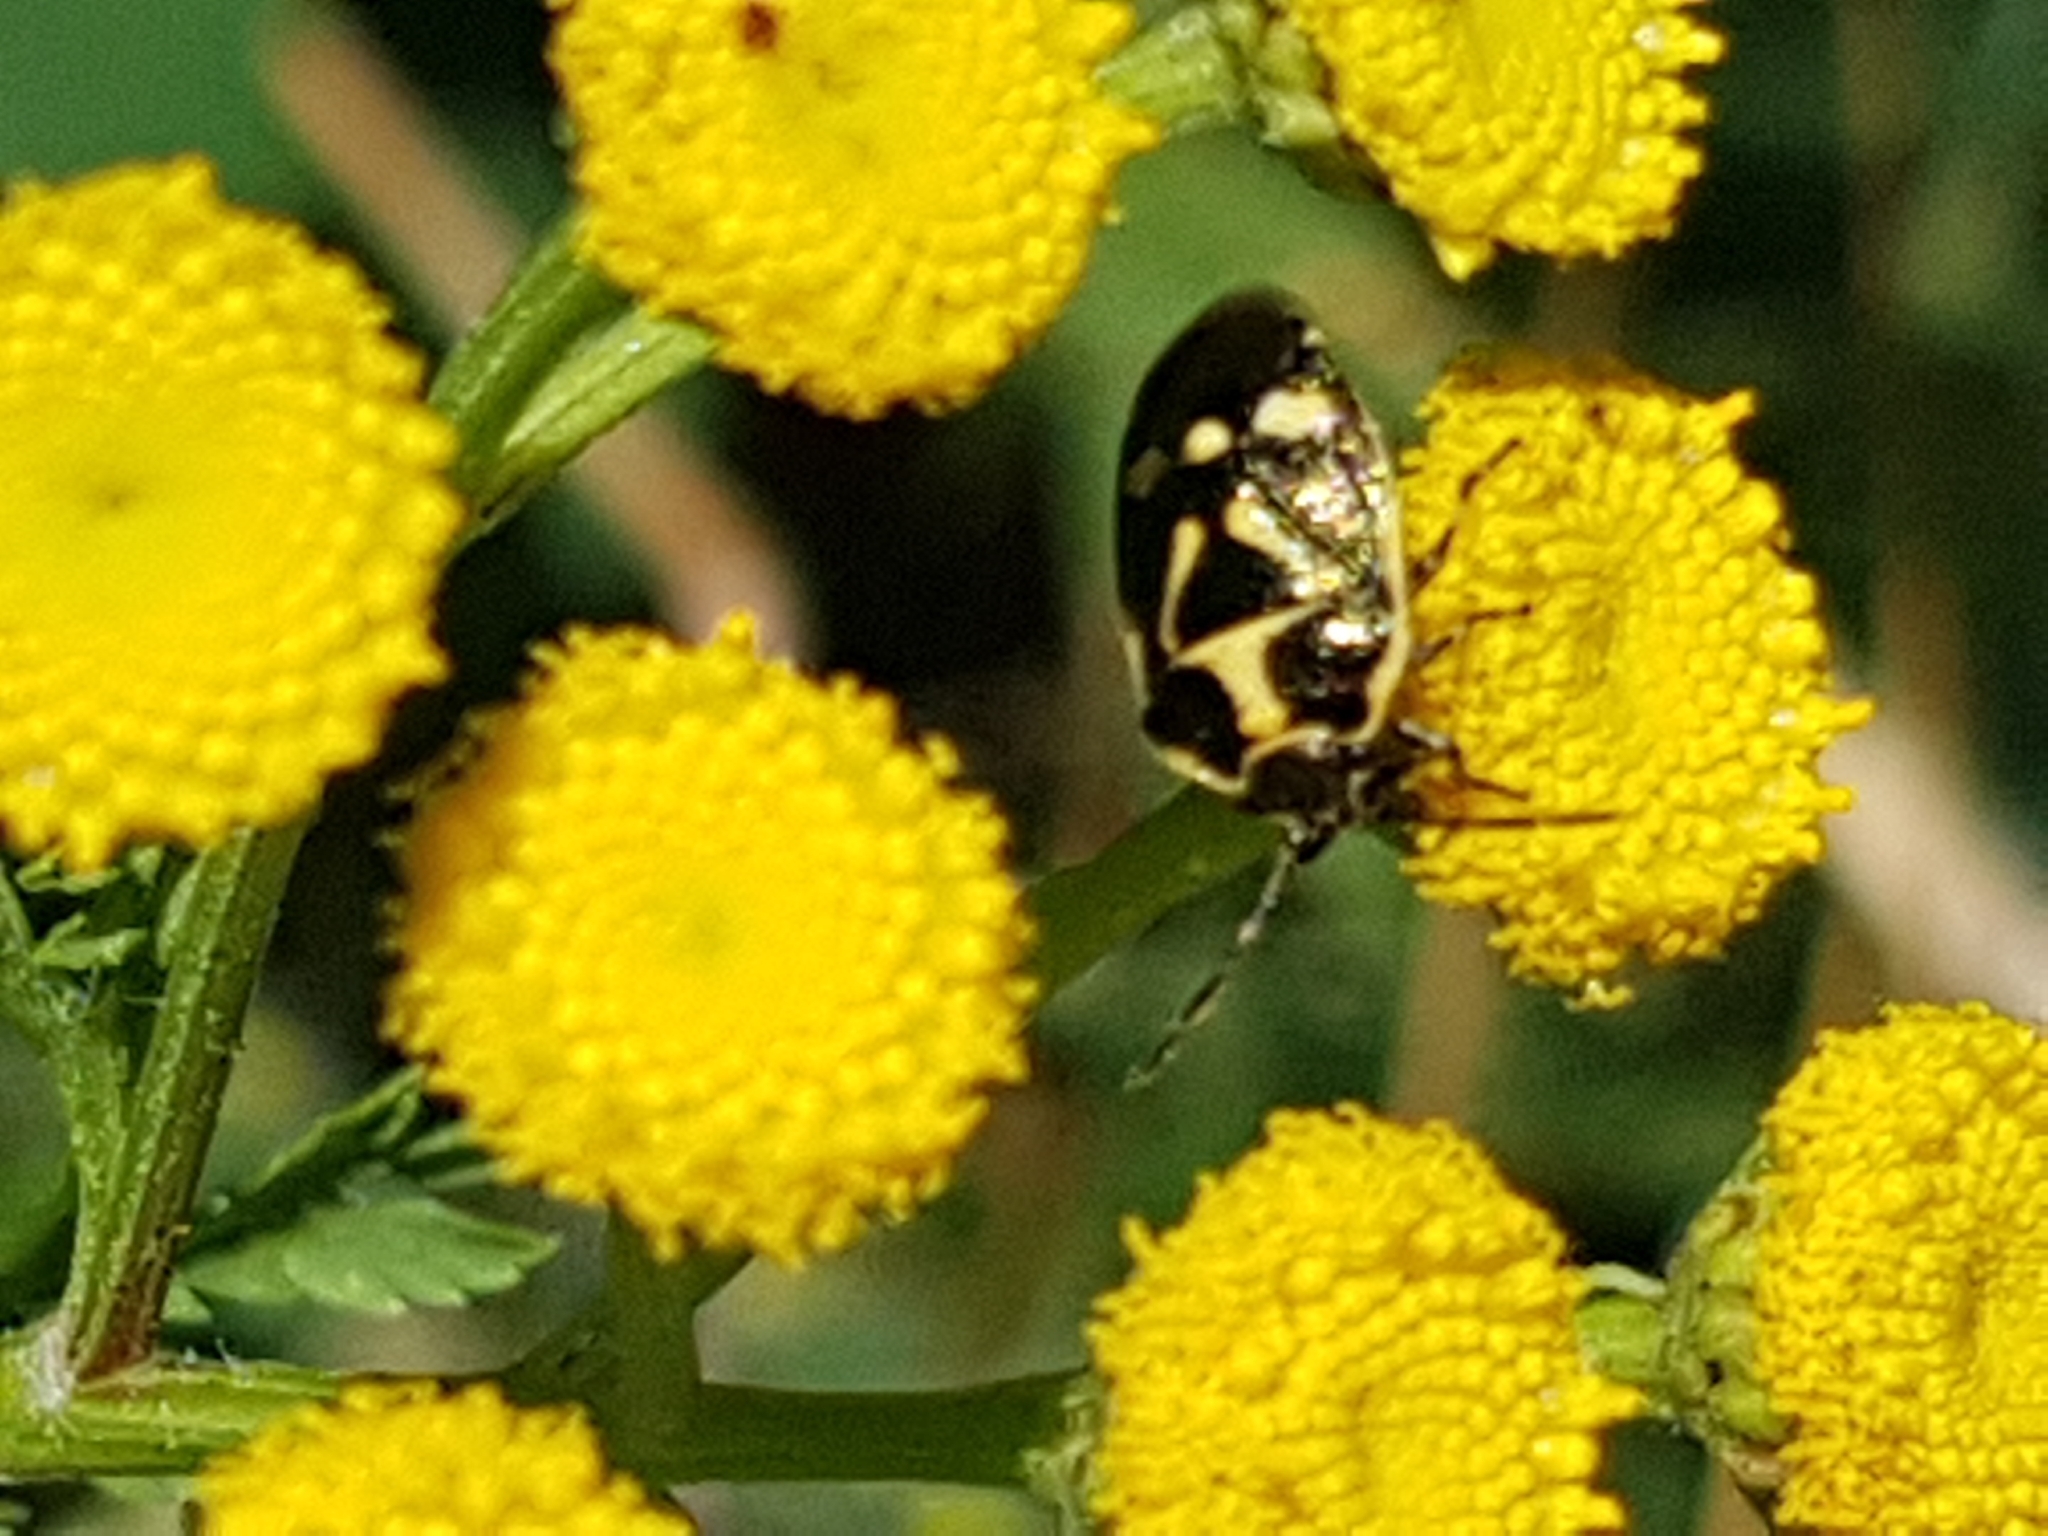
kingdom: Animalia
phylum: Arthropoda
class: Insecta
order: Hemiptera
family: Pentatomidae
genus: Eurydema
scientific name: Eurydema oleracea
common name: Cabbage bug
